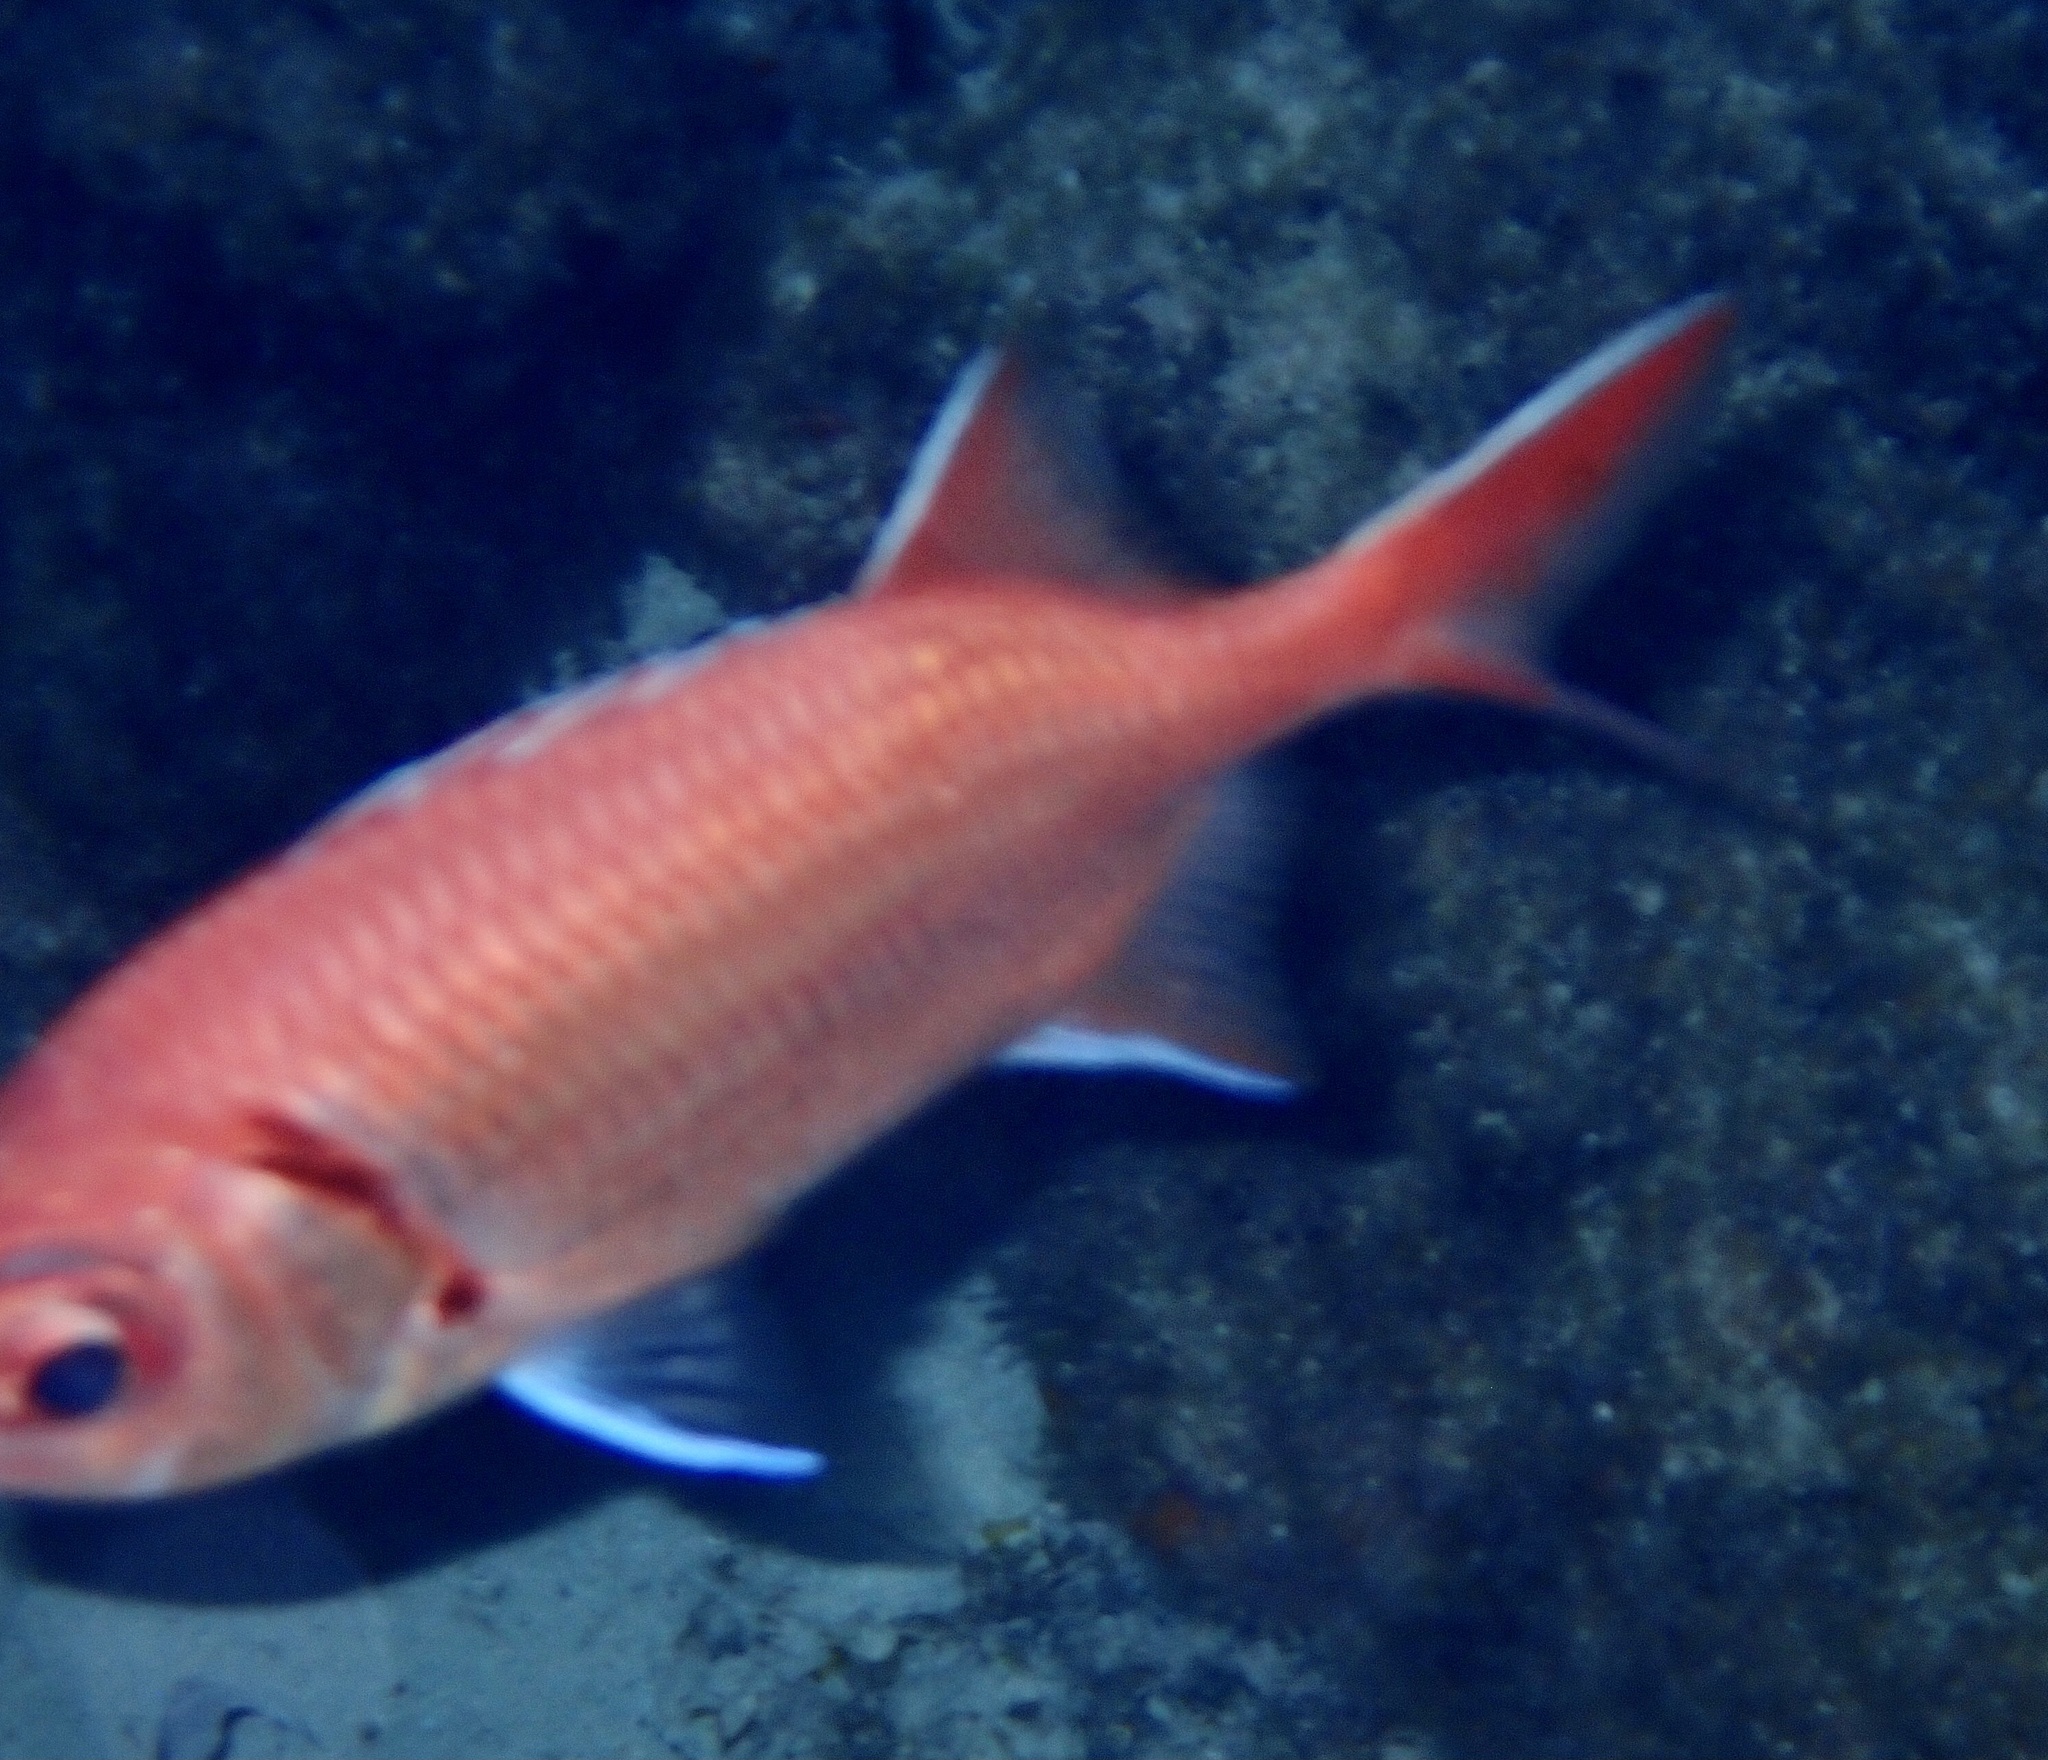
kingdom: Animalia
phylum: Chordata
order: Beryciformes
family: Holocentridae
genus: Myripristis
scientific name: Myripristis jacobus
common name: Blackbar soldierfish
